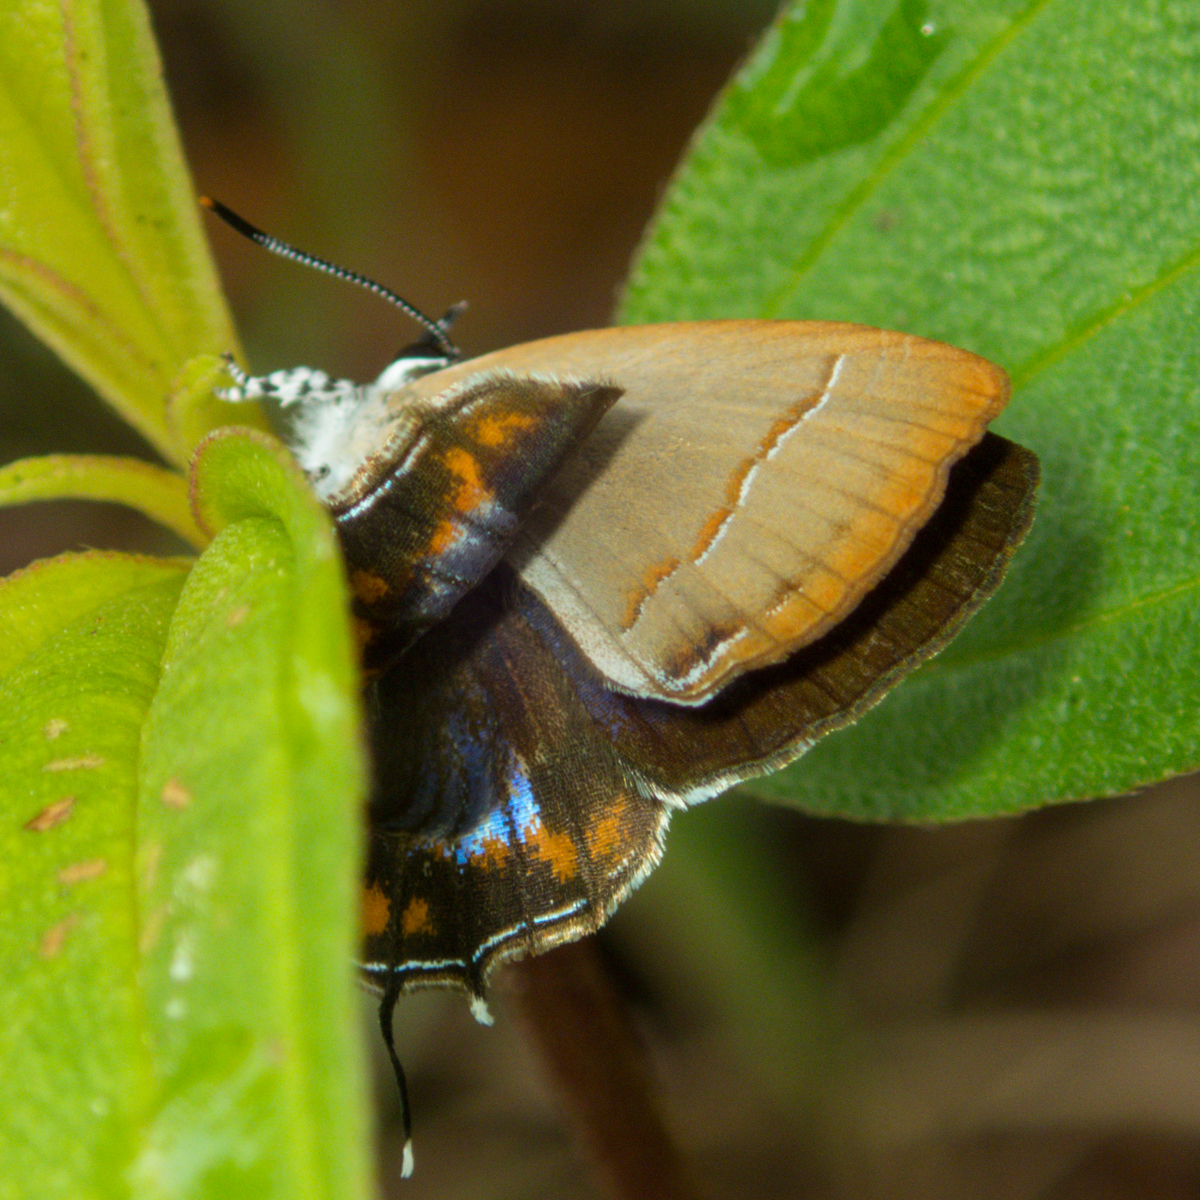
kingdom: Animalia
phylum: Arthropoda
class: Insecta
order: Lepidoptera
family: Lycaenidae
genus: Semanga
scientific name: Semanga superba
